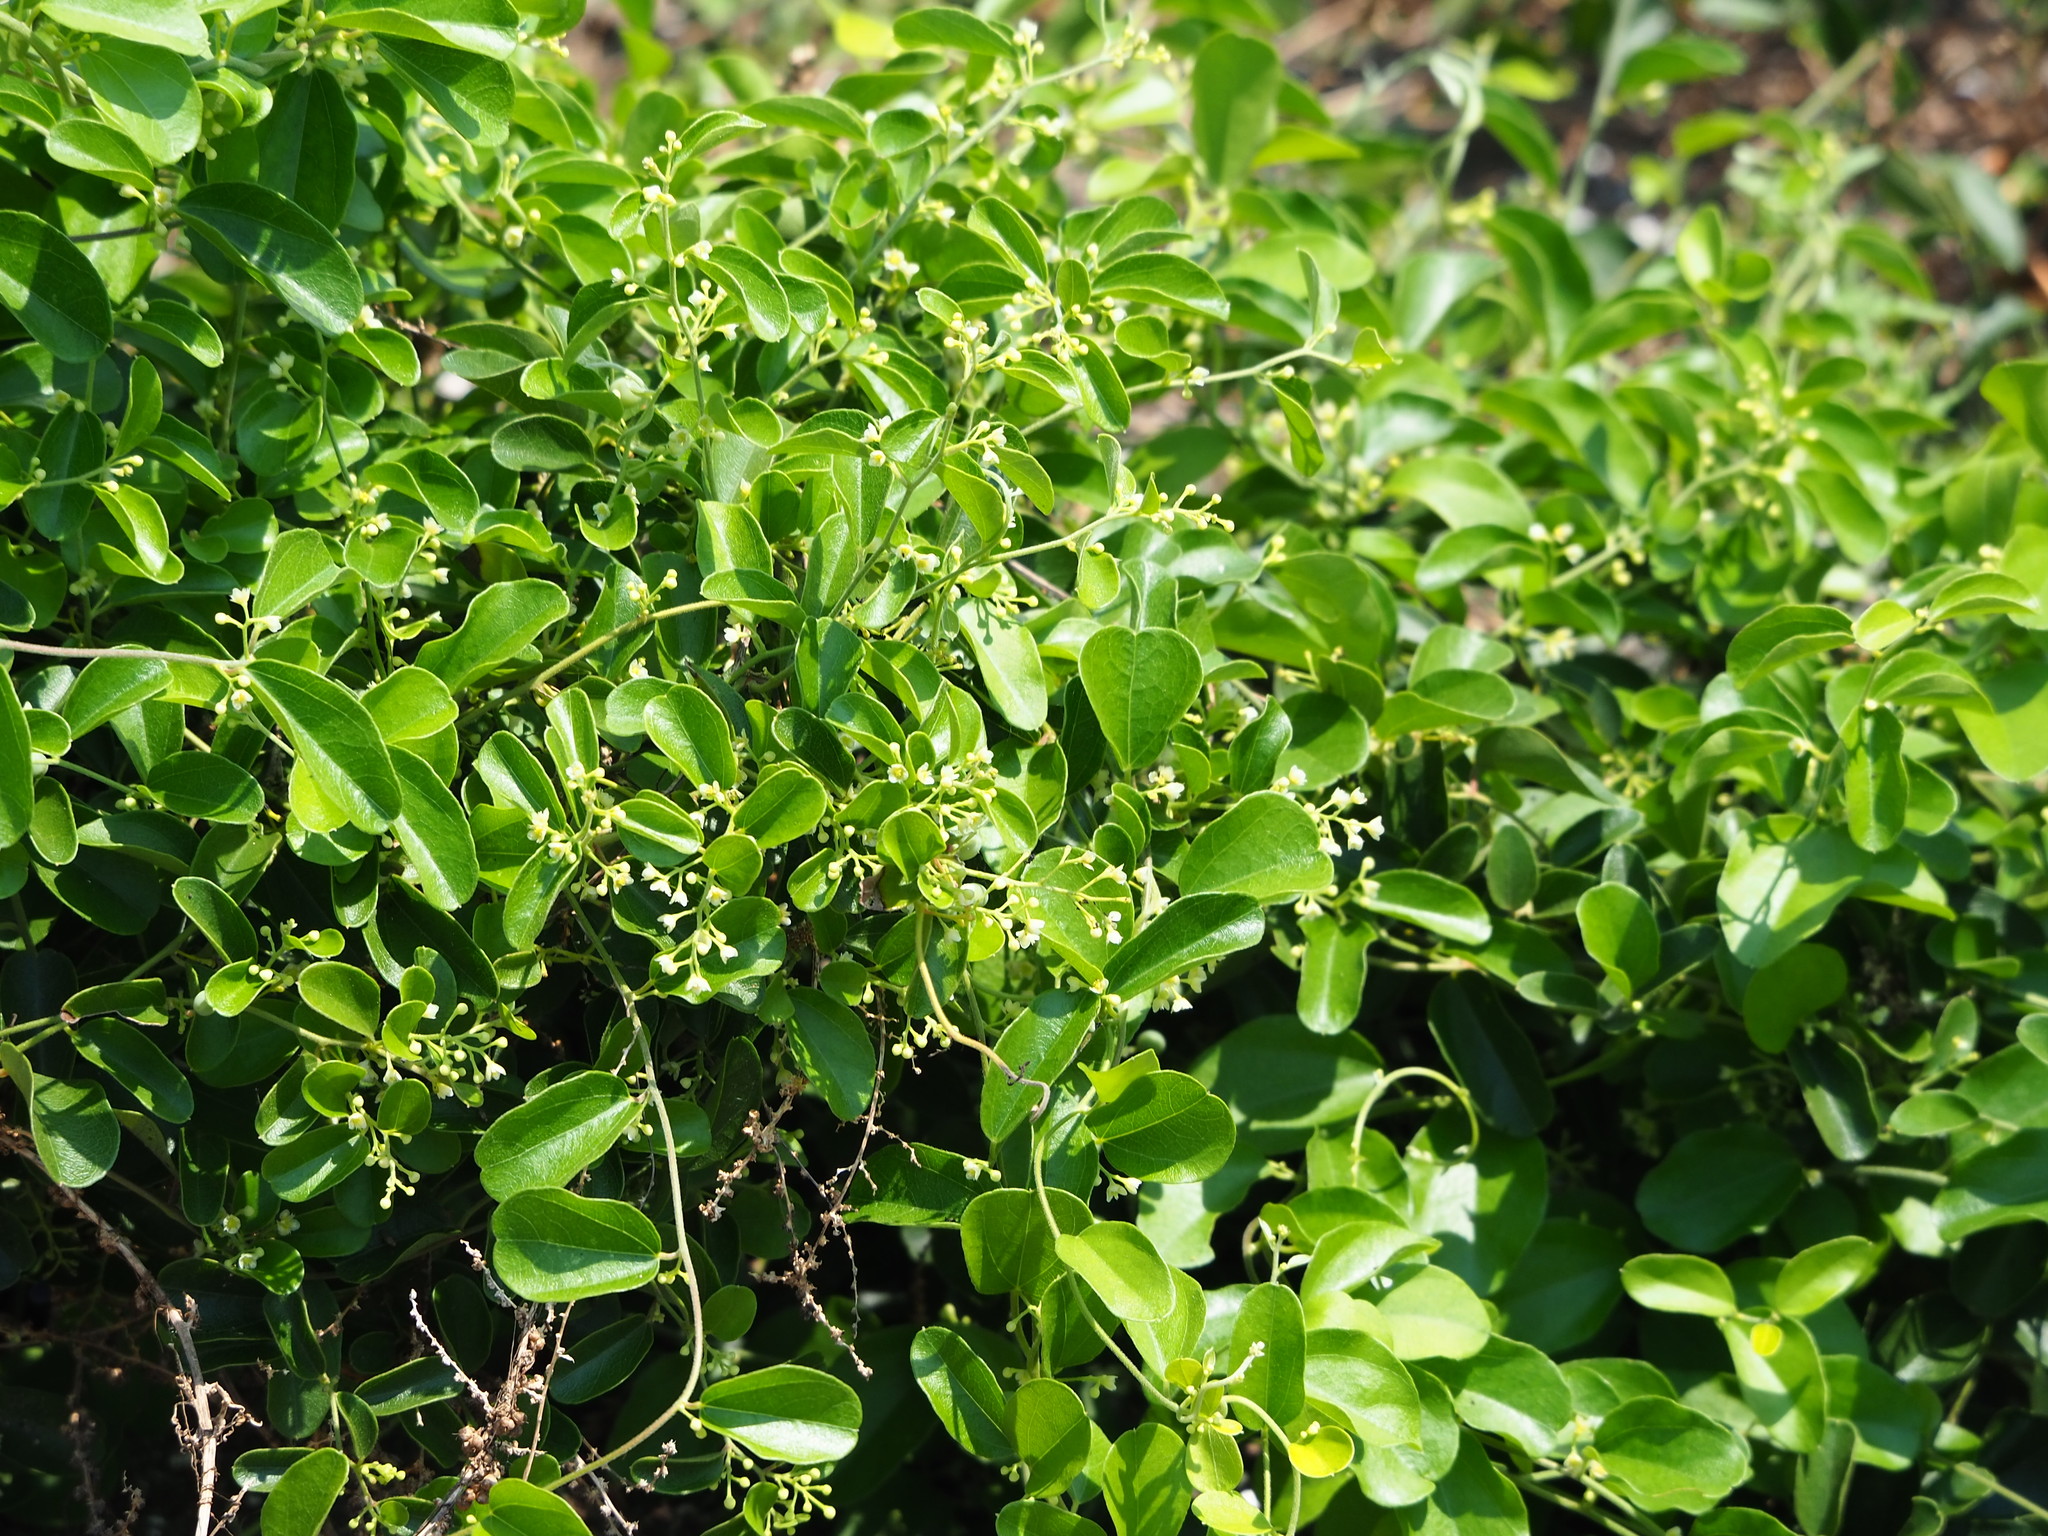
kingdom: Plantae
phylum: Tracheophyta
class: Magnoliopsida
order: Ranunculales
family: Menispermaceae
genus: Cocculus
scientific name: Cocculus orbiculatus
